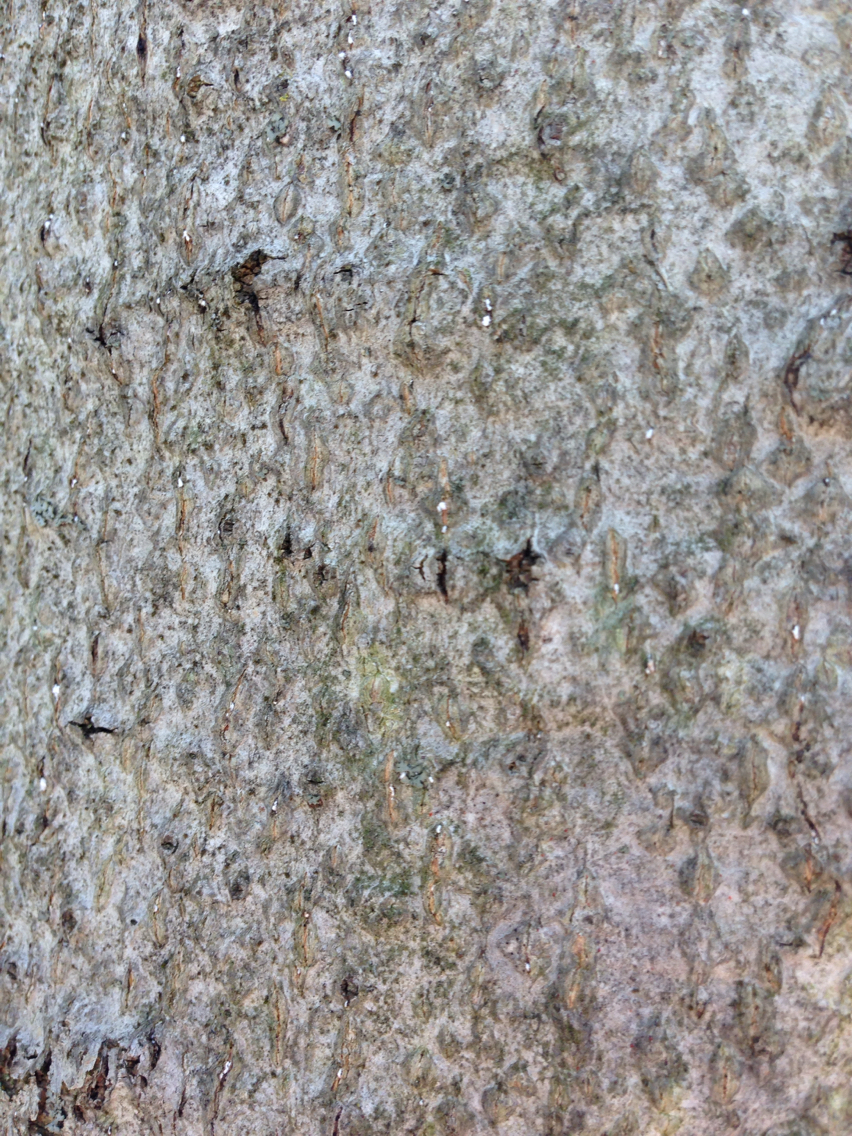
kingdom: Animalia
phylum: Arthropoda
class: Insecta
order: Hemiptera
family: Eriococcidae
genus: Cryptococcus
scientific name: Cryptococcus fagisuga
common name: Beech scale
